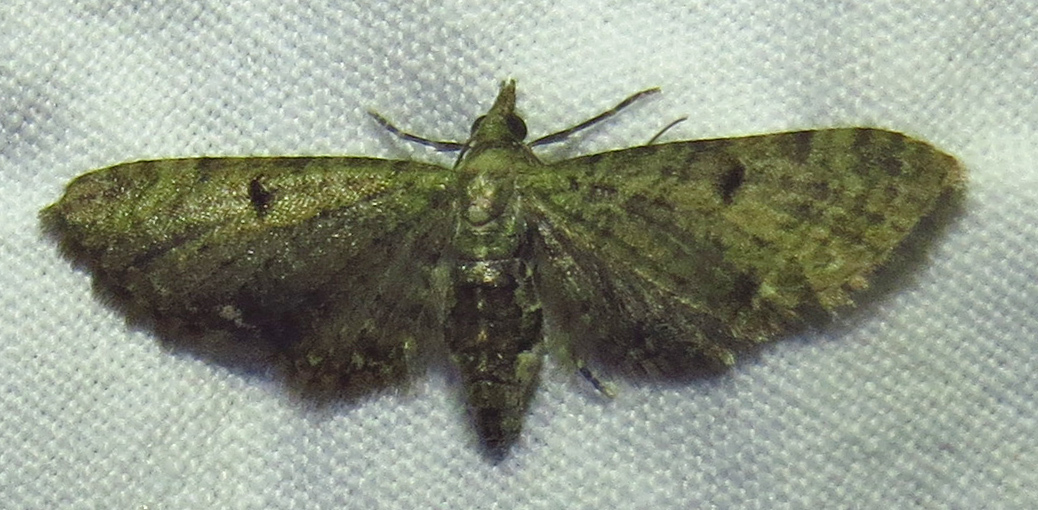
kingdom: Animalia
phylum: Arthropoda
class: Insecta
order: Lepidoptera
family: Geometridae
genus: Eupithecia
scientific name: Eupithecia miserulata
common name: Common eupithecia
